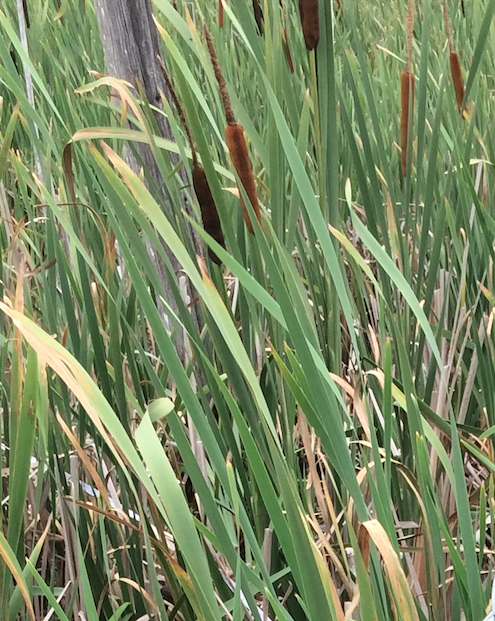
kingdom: Plantae
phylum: Tracheophyta
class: Liliopsida
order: Poales
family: Typhaceae
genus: Typha
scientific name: Typha latifolia
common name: Broadleaf cattail
